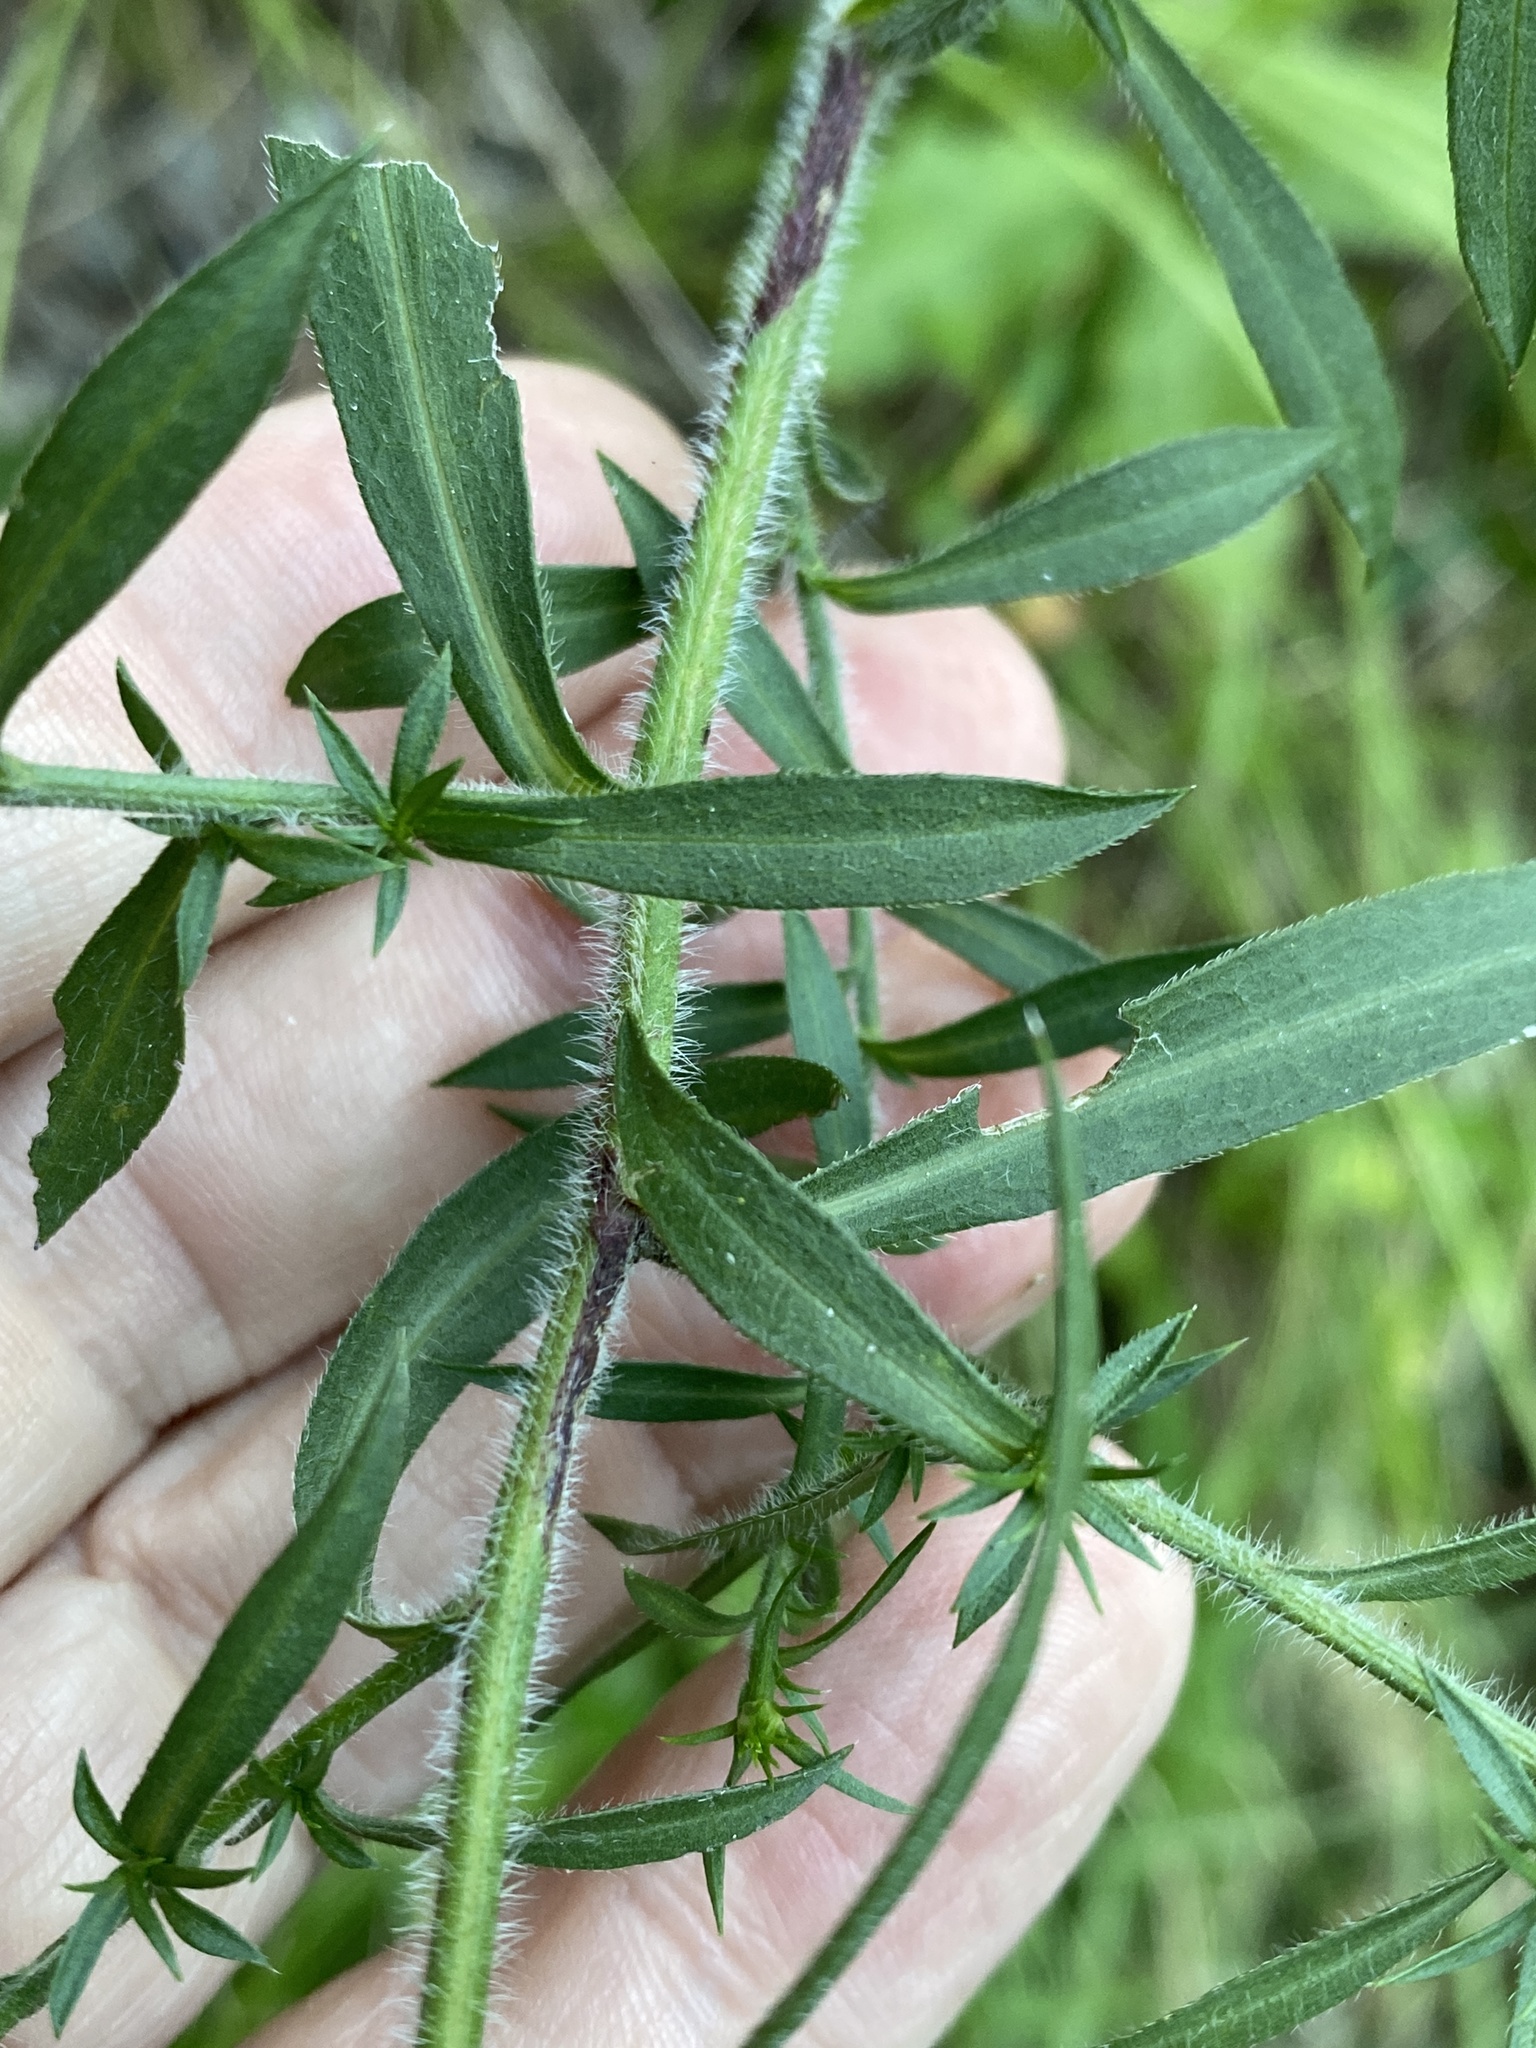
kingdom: Plantae
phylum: Tracheophyta
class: Magnoliopsida
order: Asterales
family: Asteraceae
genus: Symphyotrichum
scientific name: Symphyotrichum pilosum
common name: Awl aster
